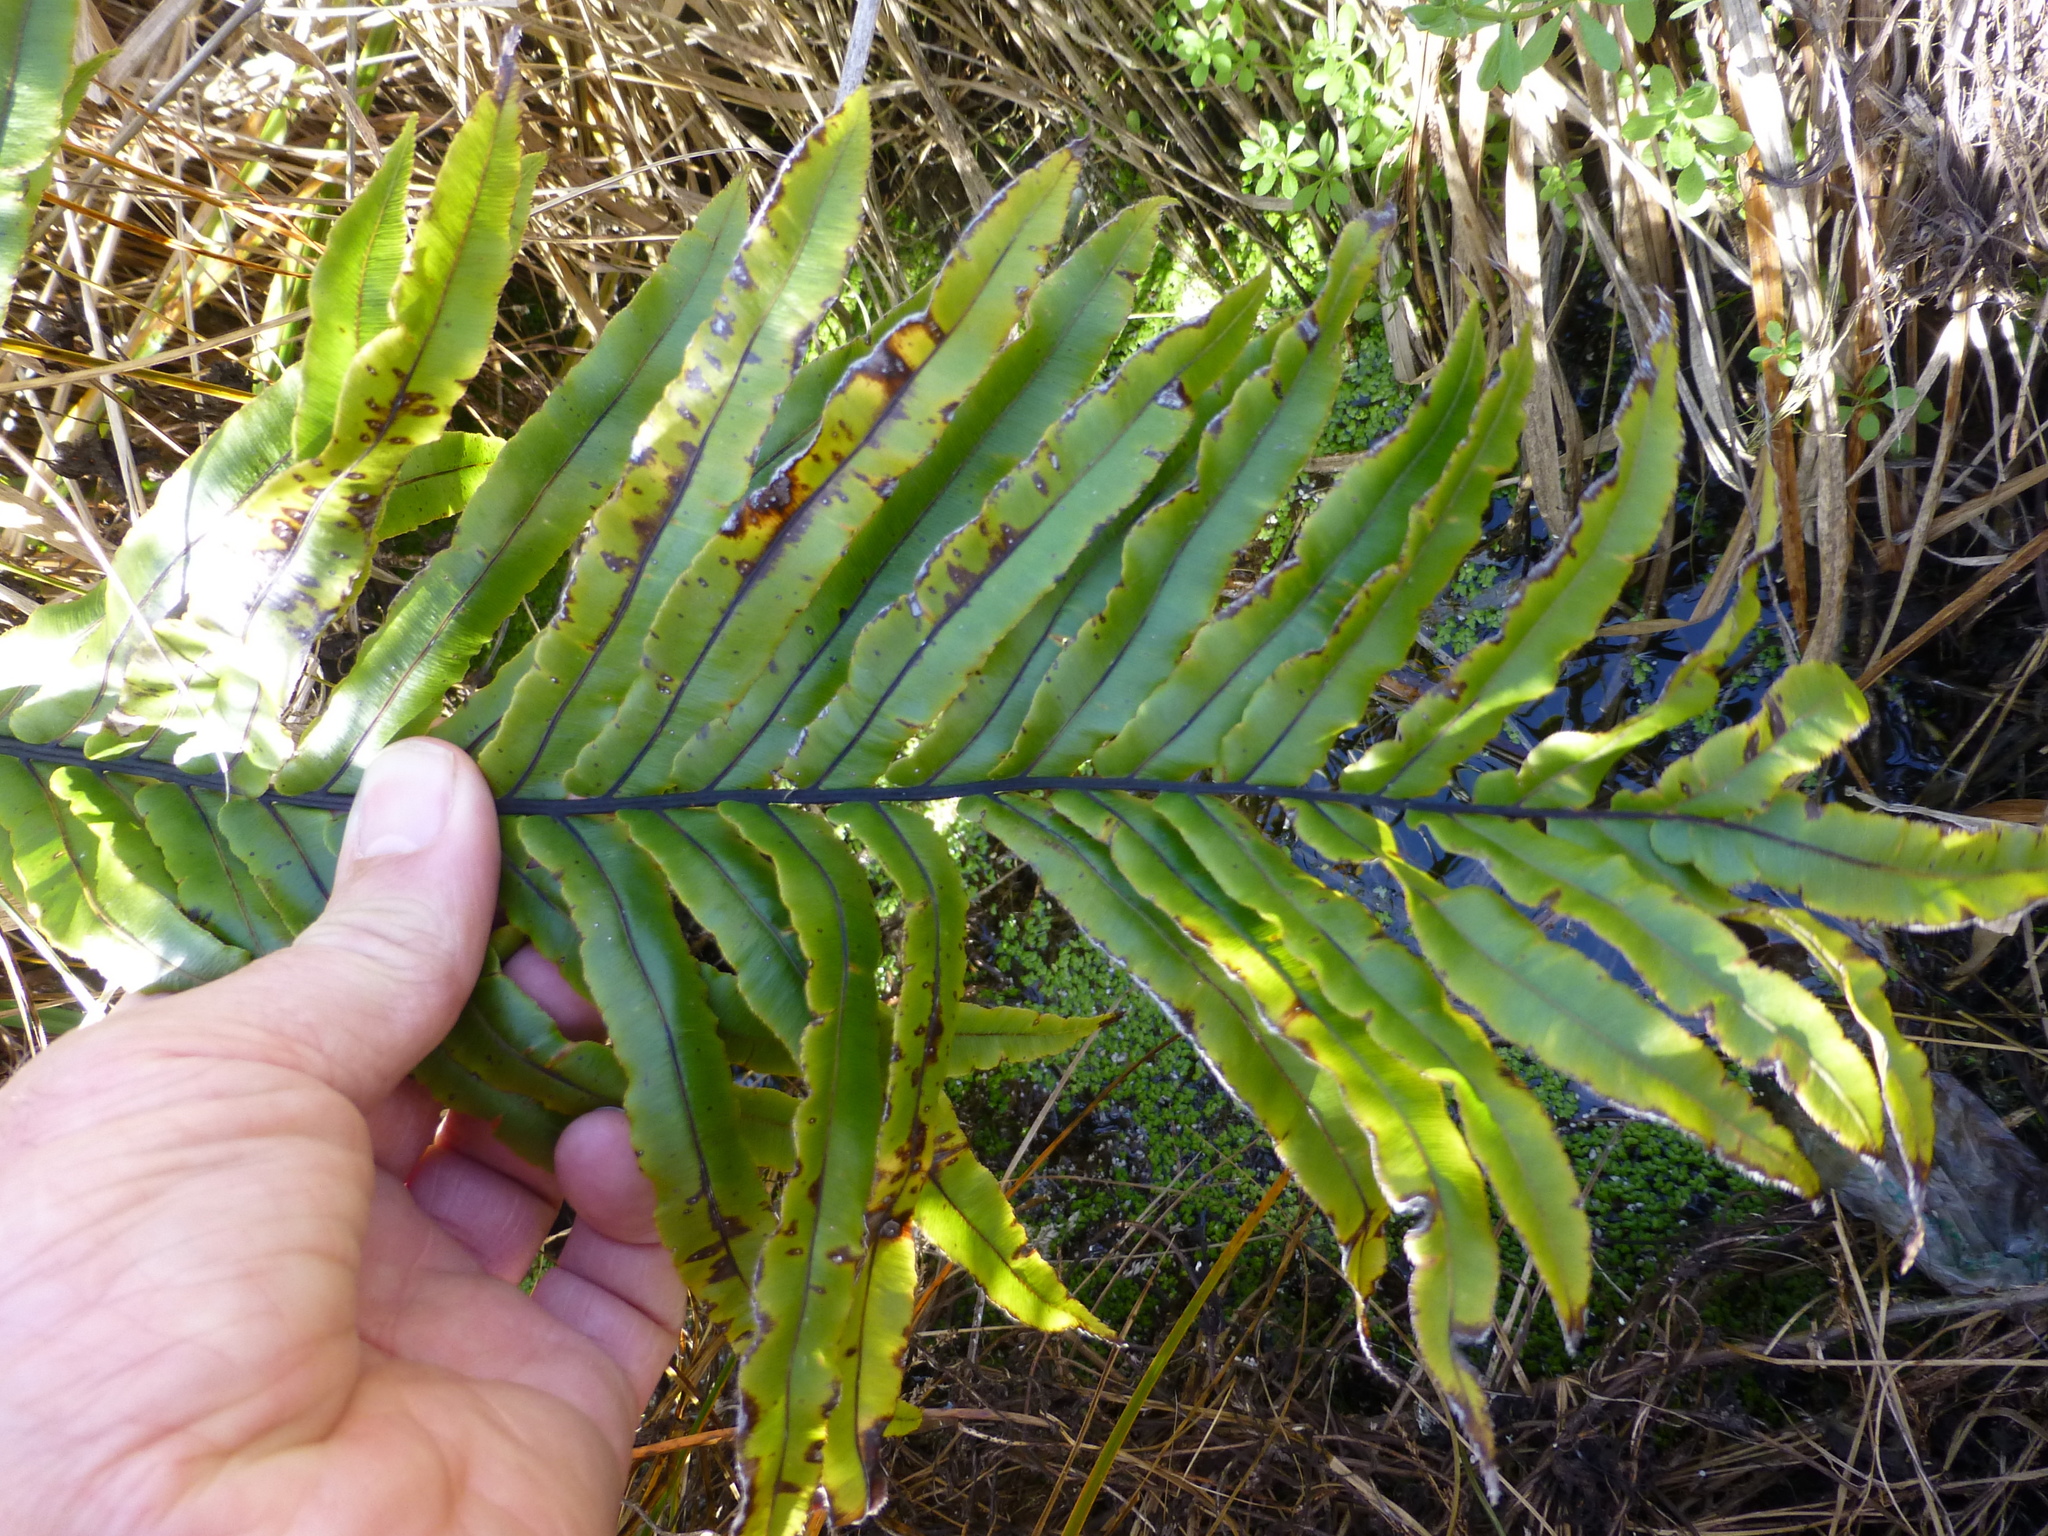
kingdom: Plantae
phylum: Tracheophyta
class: Polypodiopsida
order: Polypodiales
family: Blechnaceae
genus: Parablechnum
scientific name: Parablechnum novae-zelandiae
